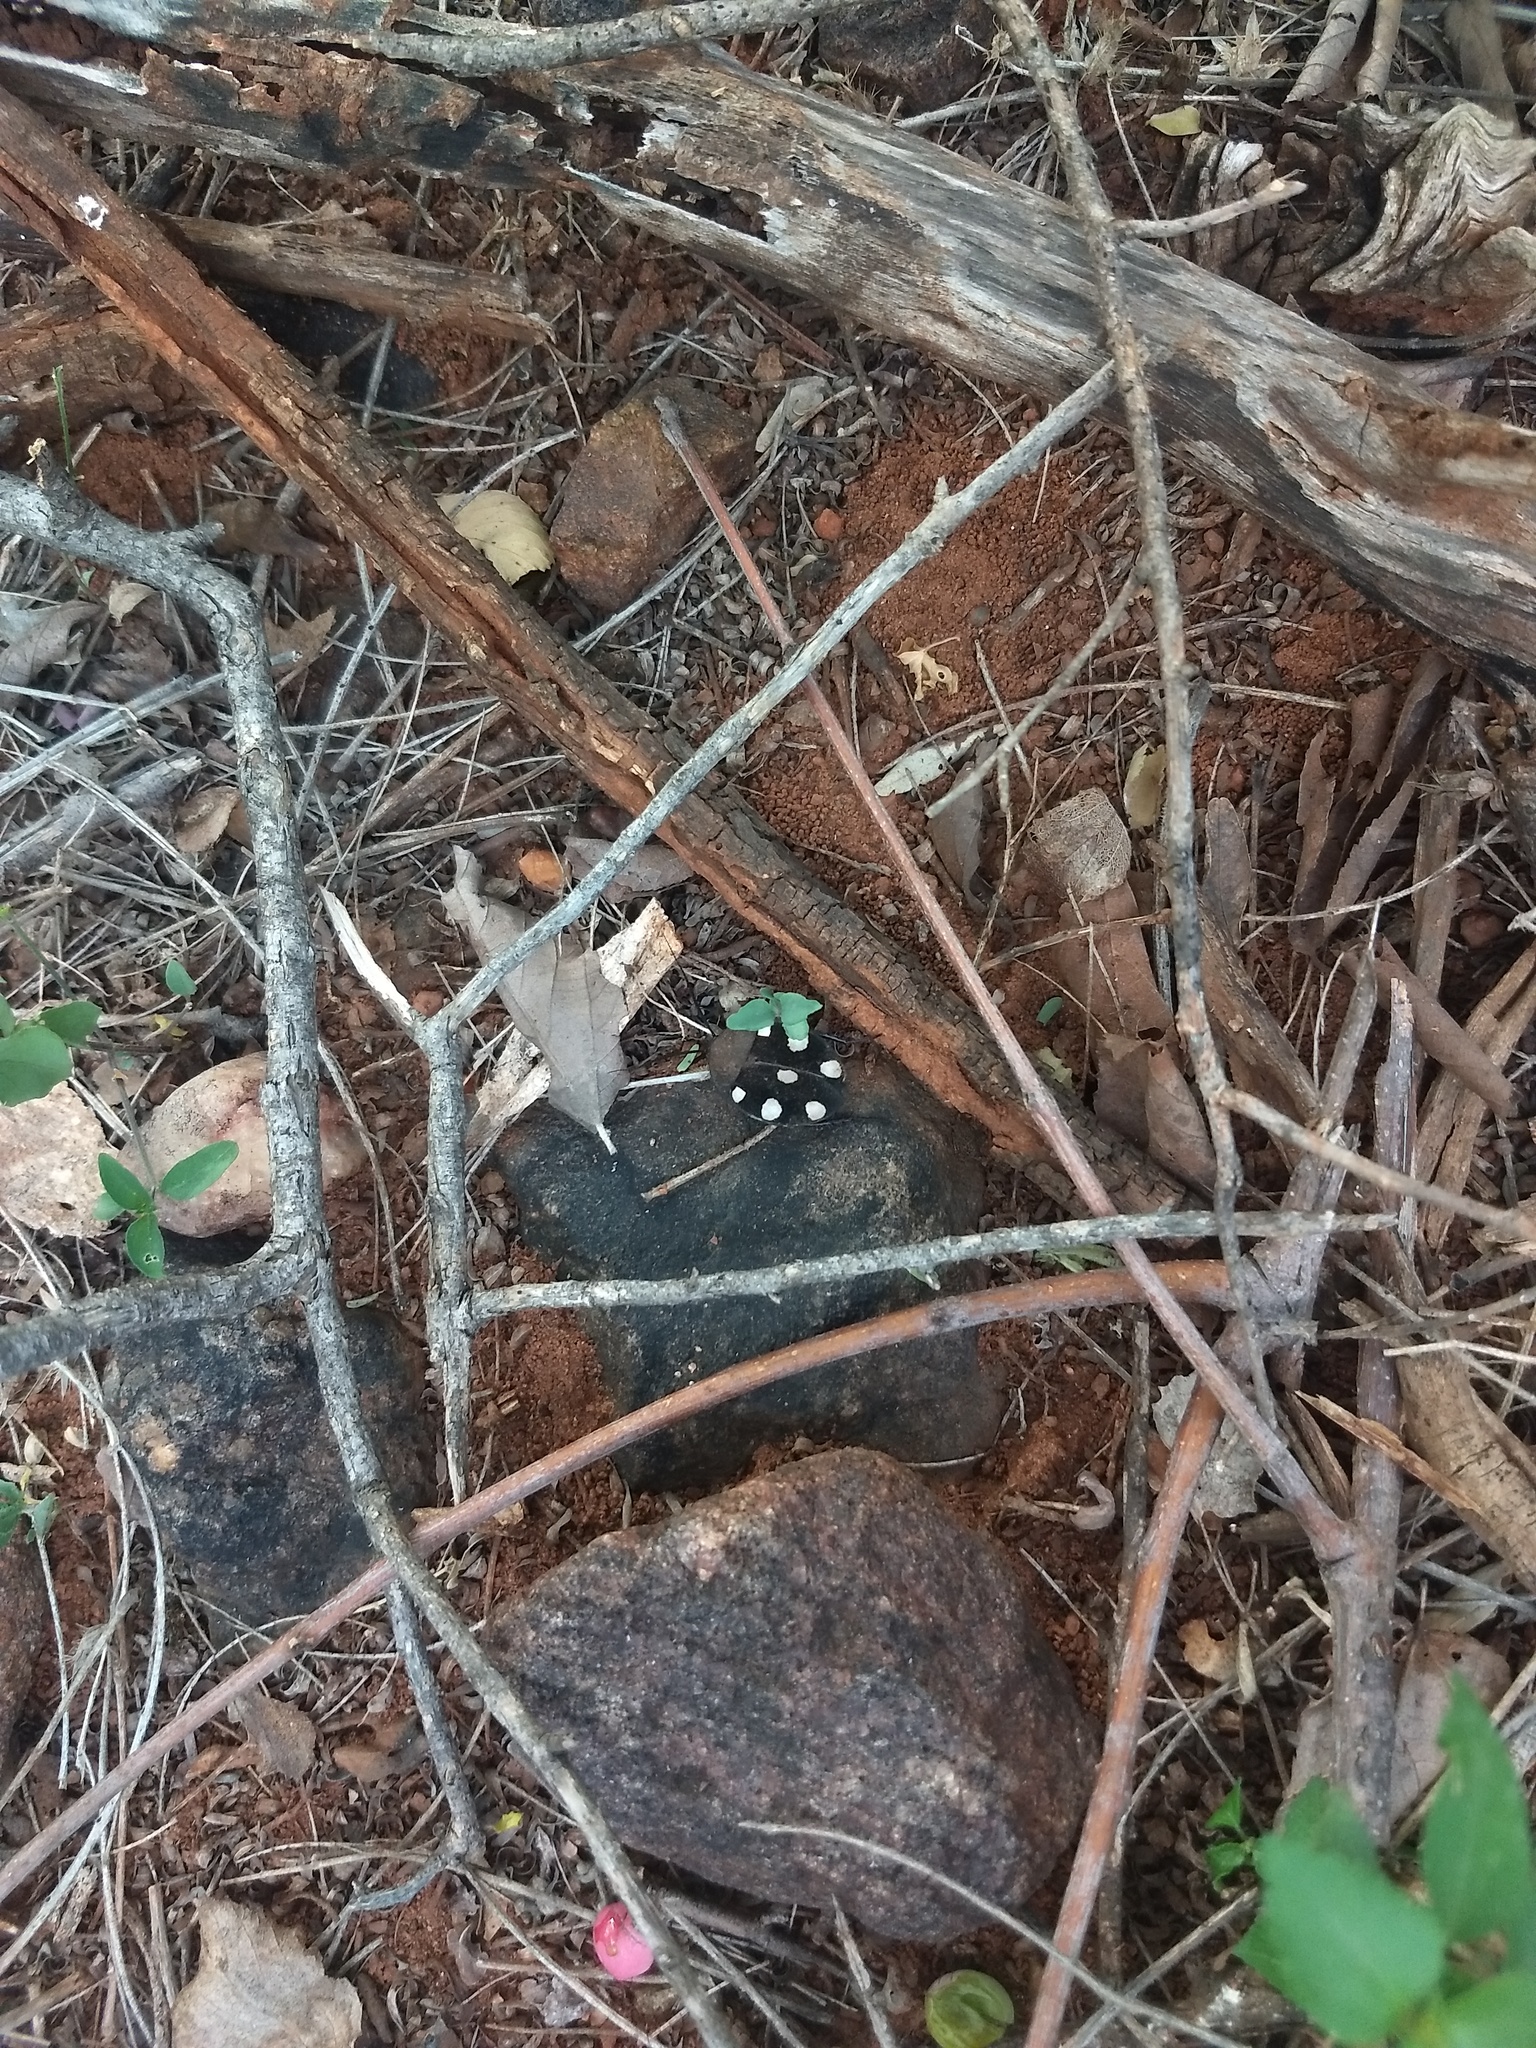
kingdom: Animalia
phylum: Arthropoda
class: Insecta
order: Blattodea
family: Corydiidae
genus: Therea
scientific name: Therea petiveriana
